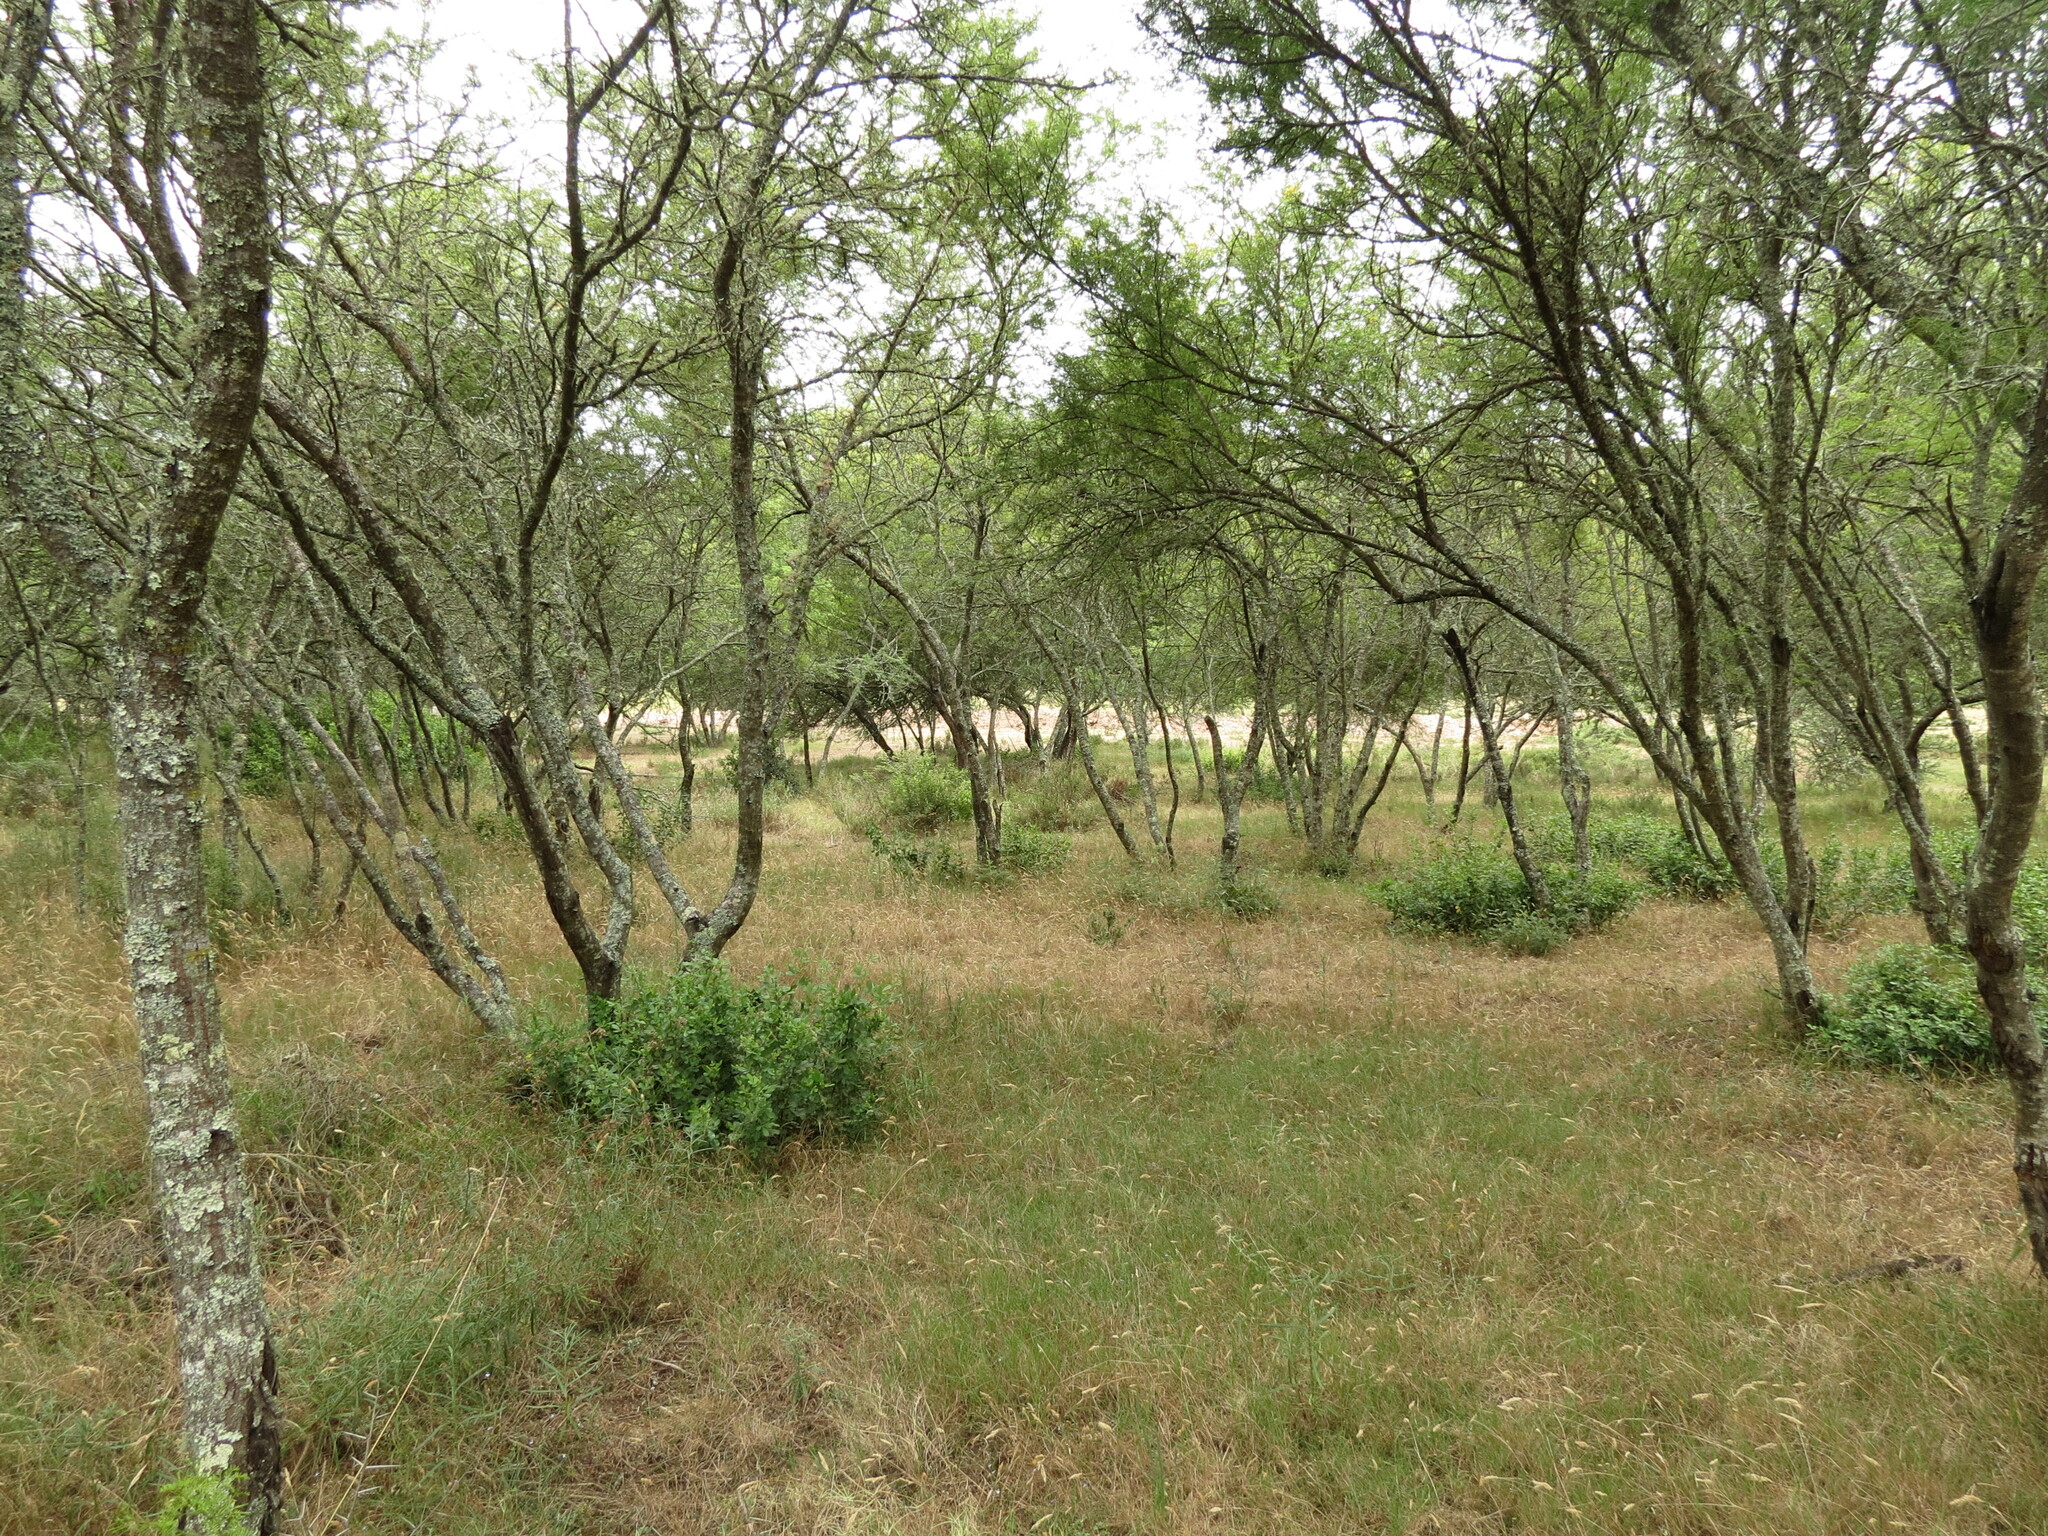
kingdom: Plantae
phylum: Tracheophyta
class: Magnoliopsida
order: Fabales
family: Fabaceae
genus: Vachellia
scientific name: Vachellia karroo
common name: Sweet thorn
